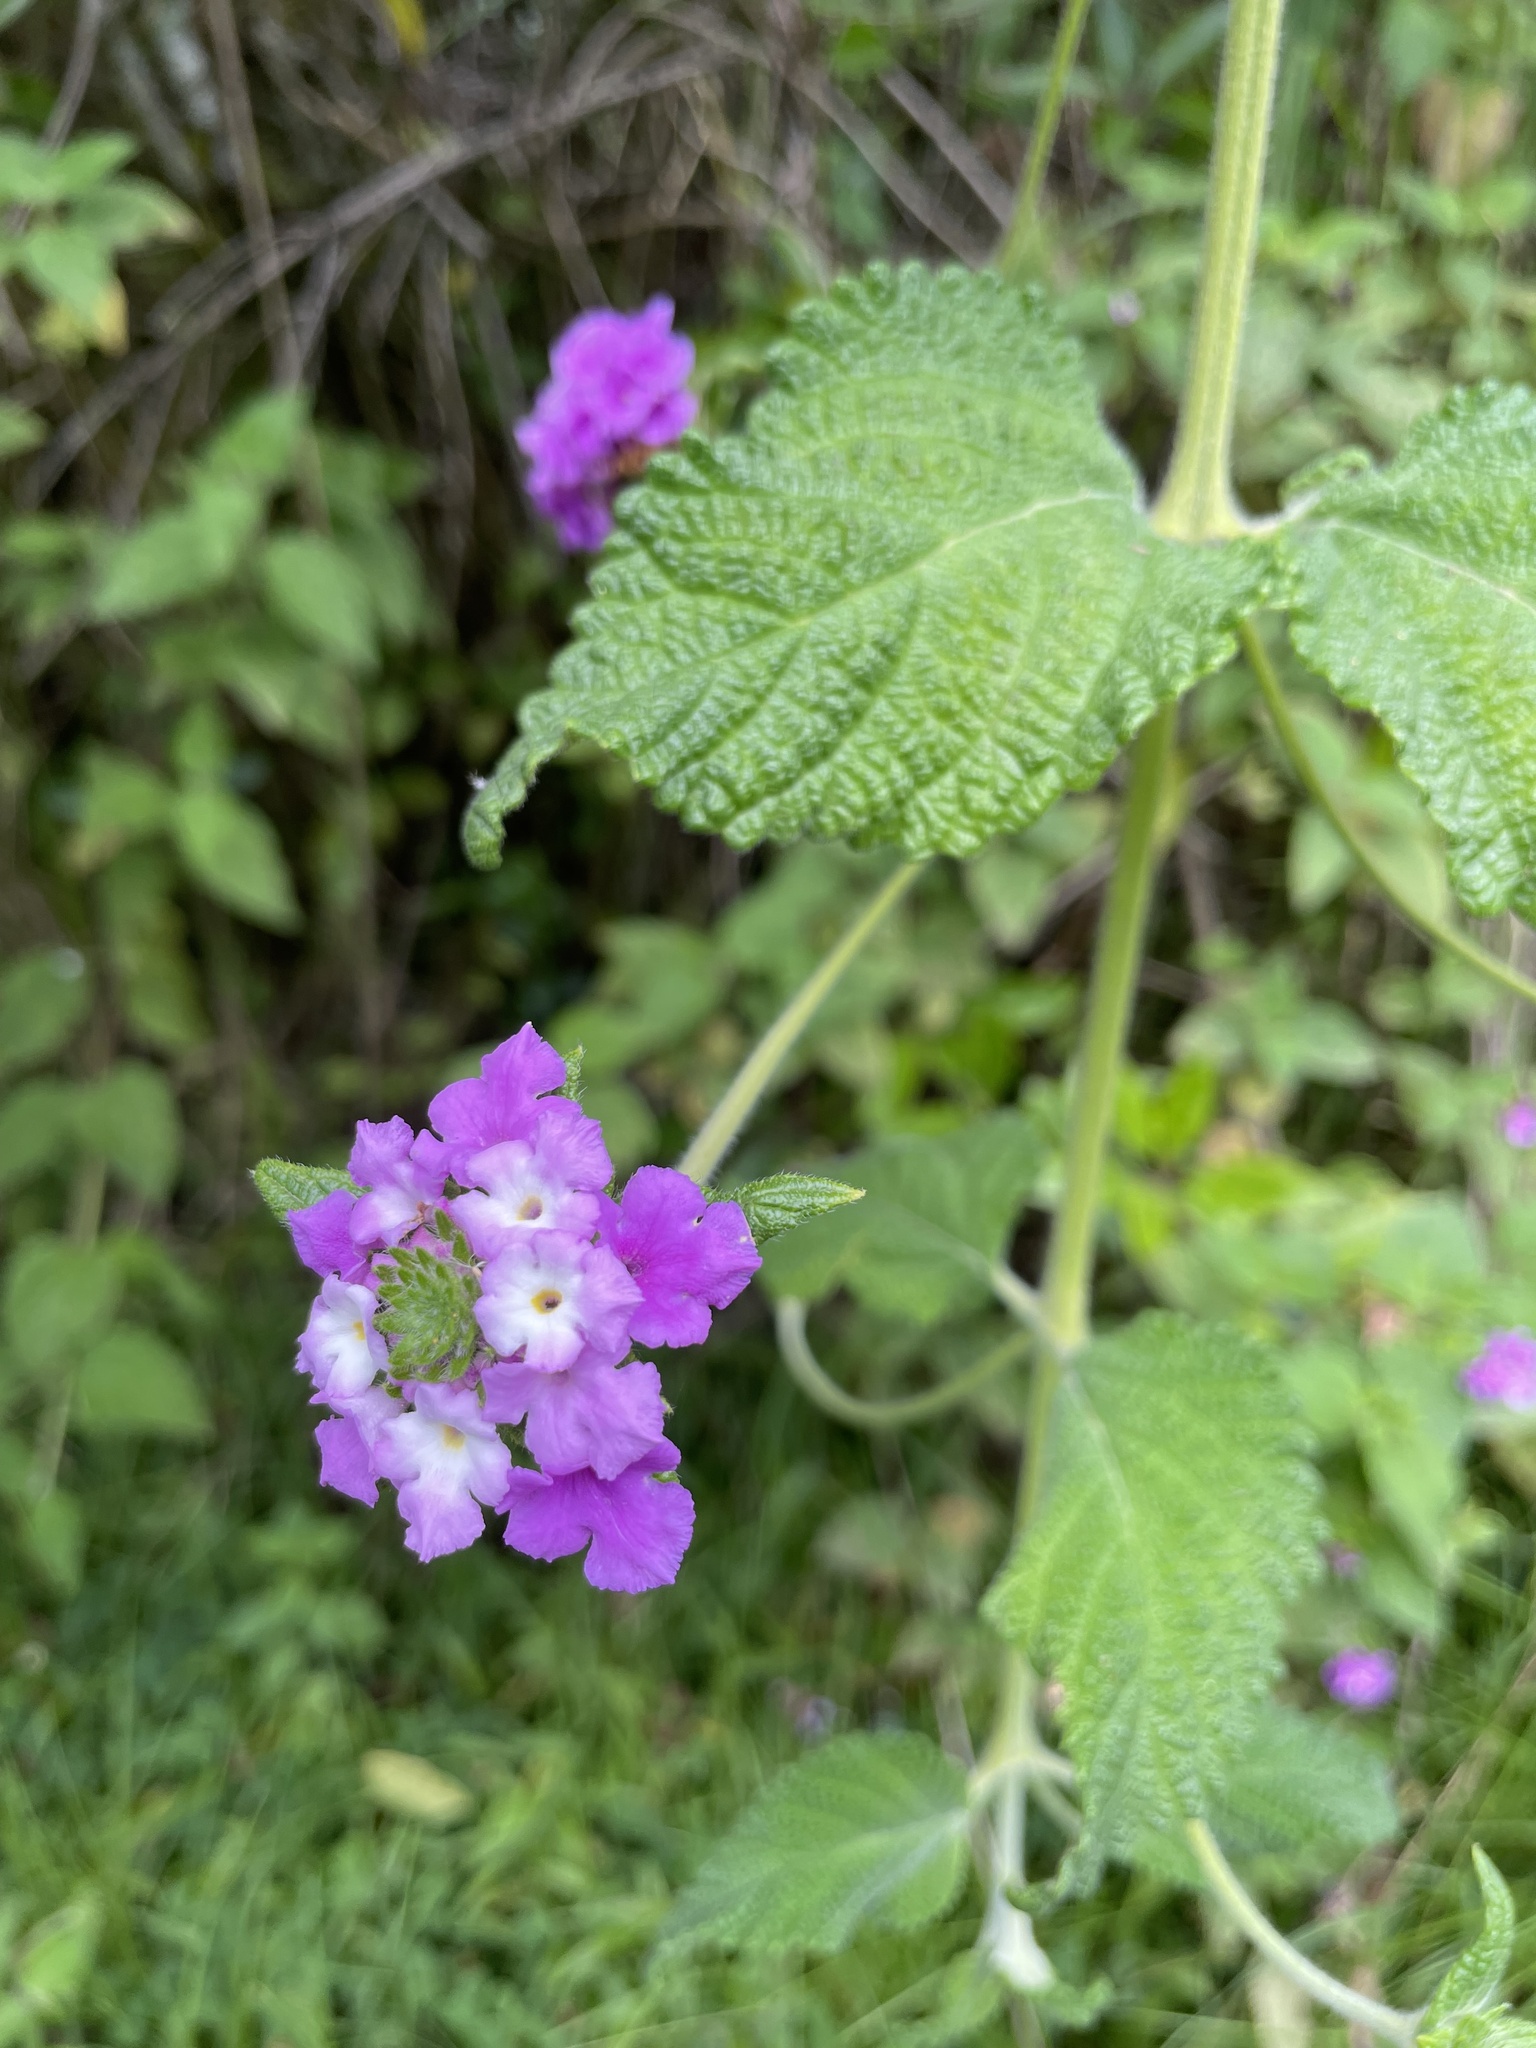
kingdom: Plantae
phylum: Tracheophyta
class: Magnoliopsida
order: Lamiales
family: Verbenaceae
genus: Lantana
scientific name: Lantana rugulosa
